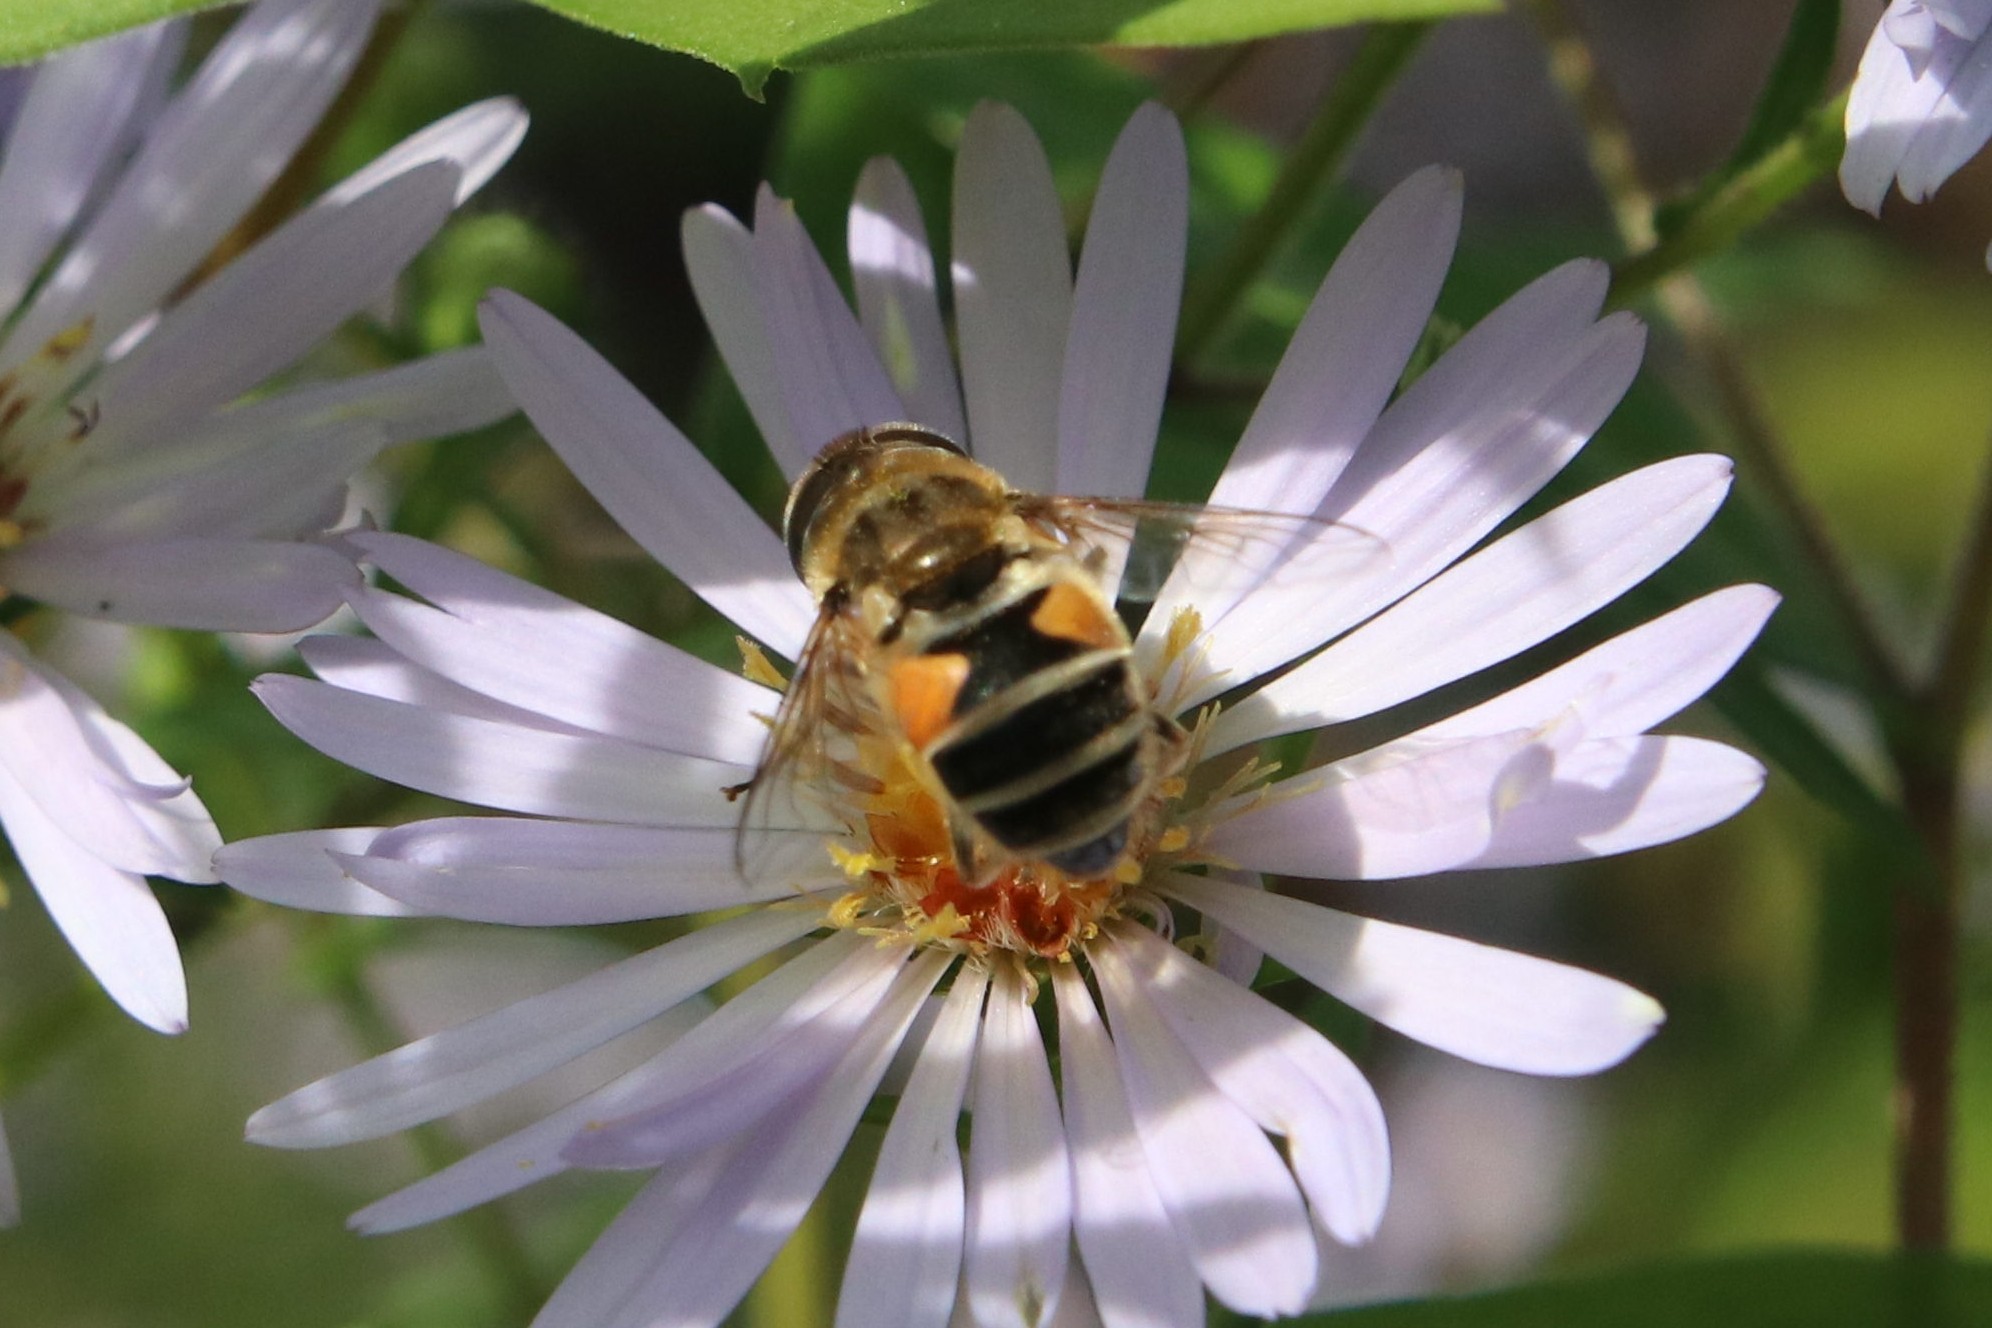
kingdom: Animalia
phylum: Arthropoda
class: Insecta
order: Diptera
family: Syrphidae
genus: Eristalis
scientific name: Eristalis arbustorum
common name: Hover fly
